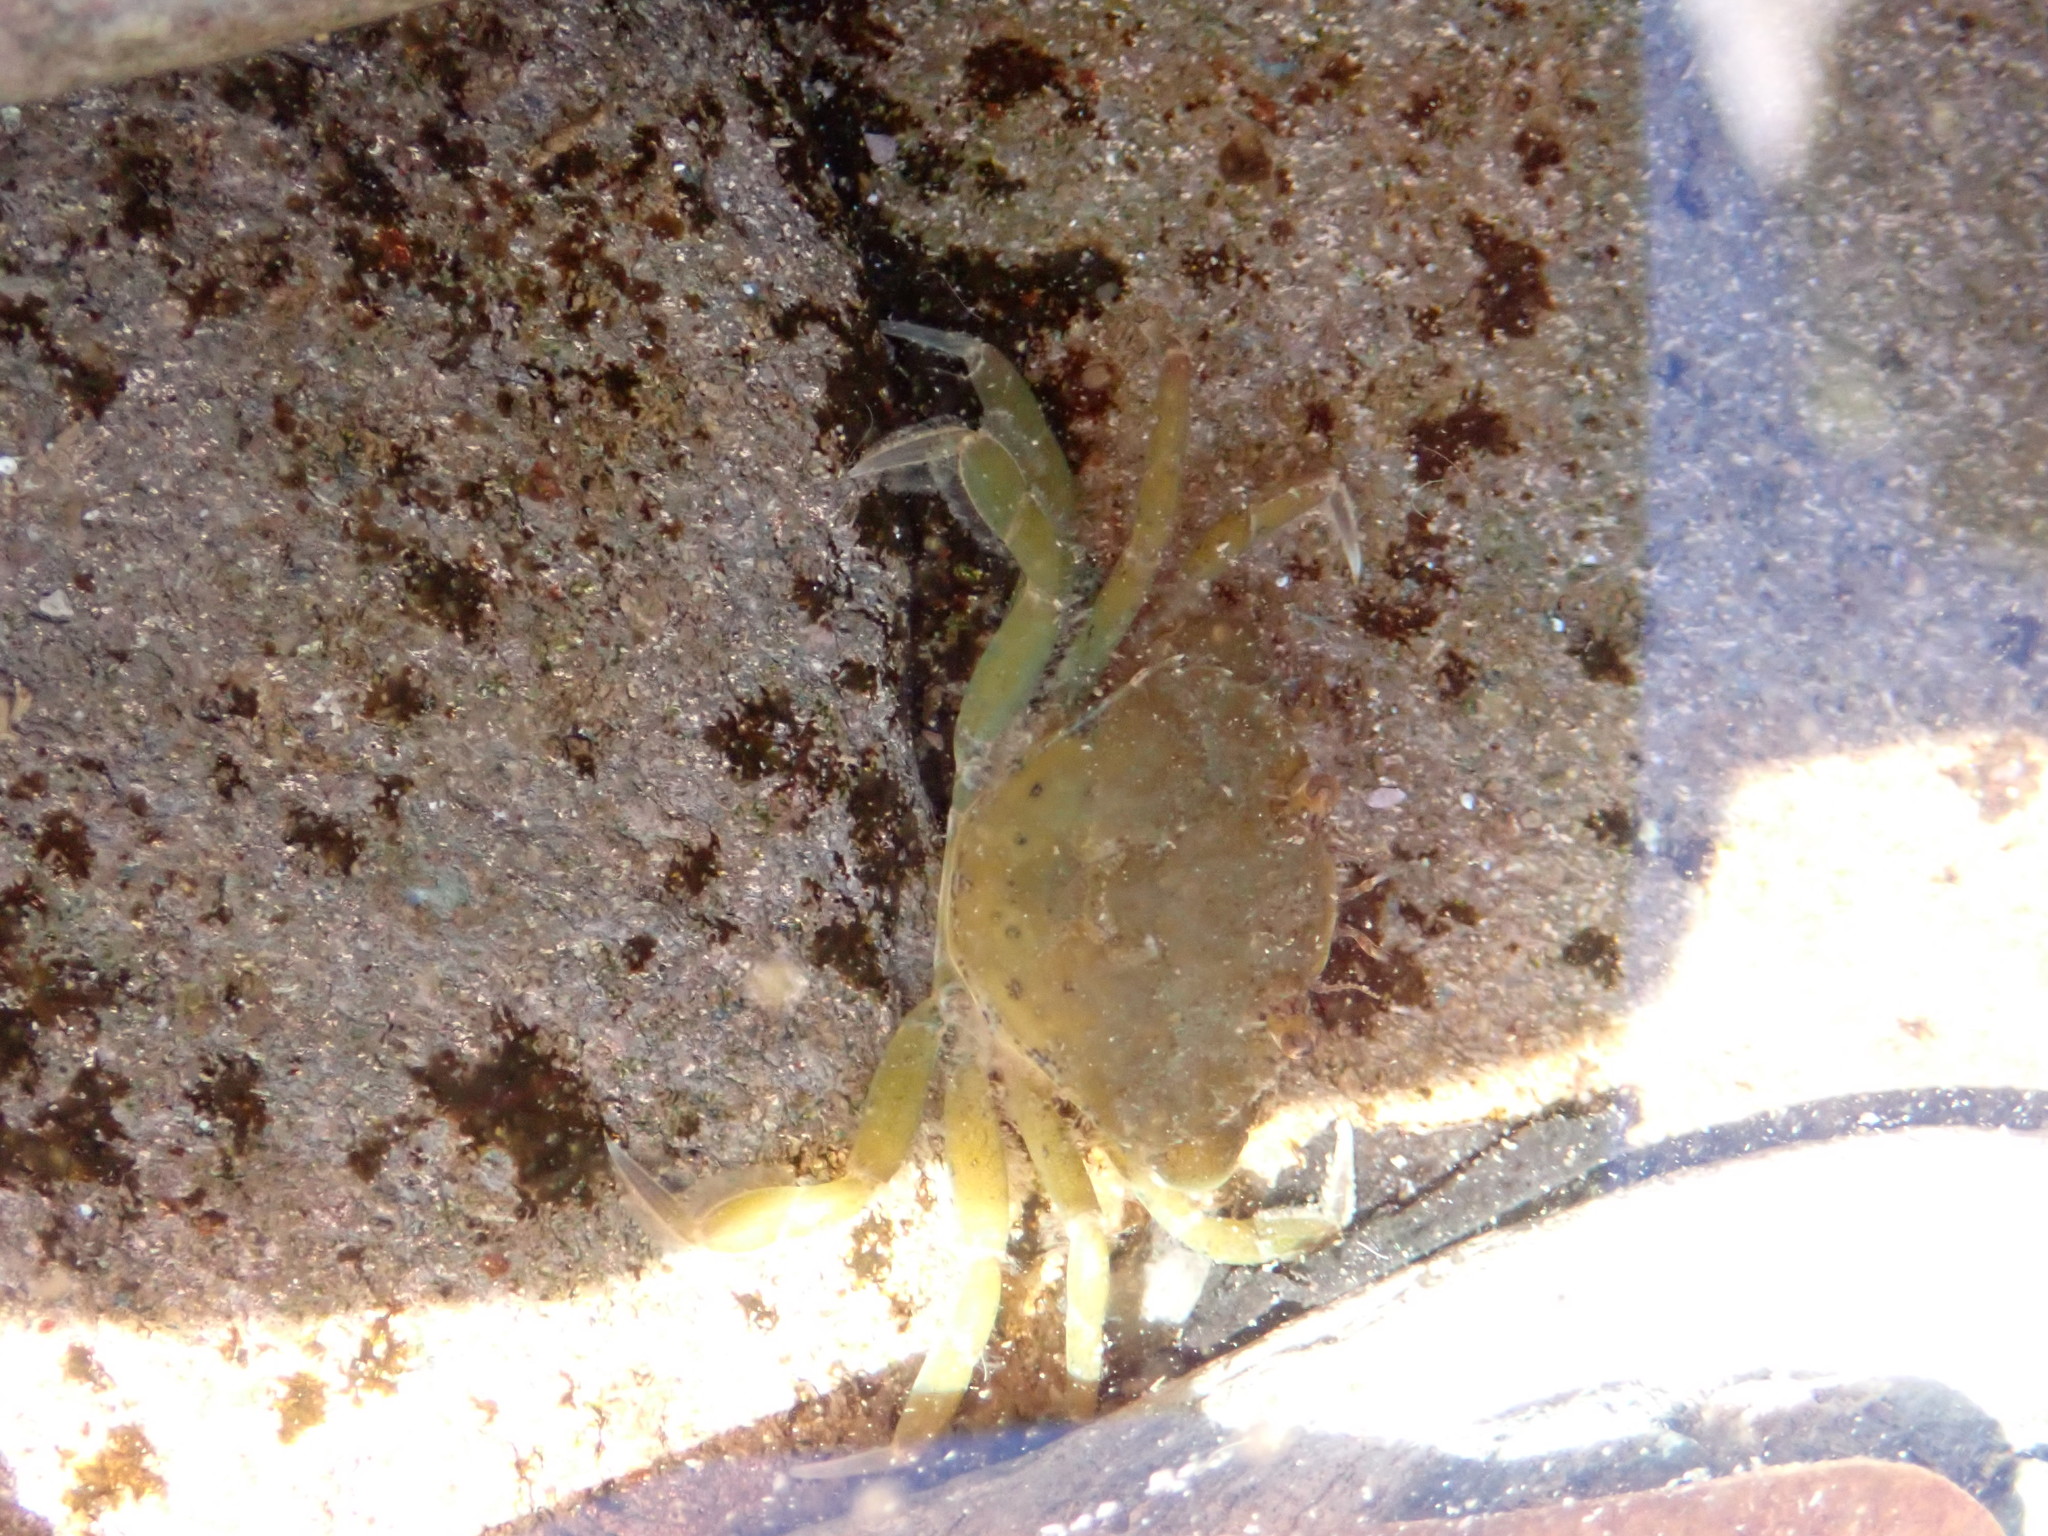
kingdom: Animalia
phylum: Arthropoda
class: Malacostraca
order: Decapoda
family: Carcinidae
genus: Carcinus
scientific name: Carcinus maenas
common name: European green crab
